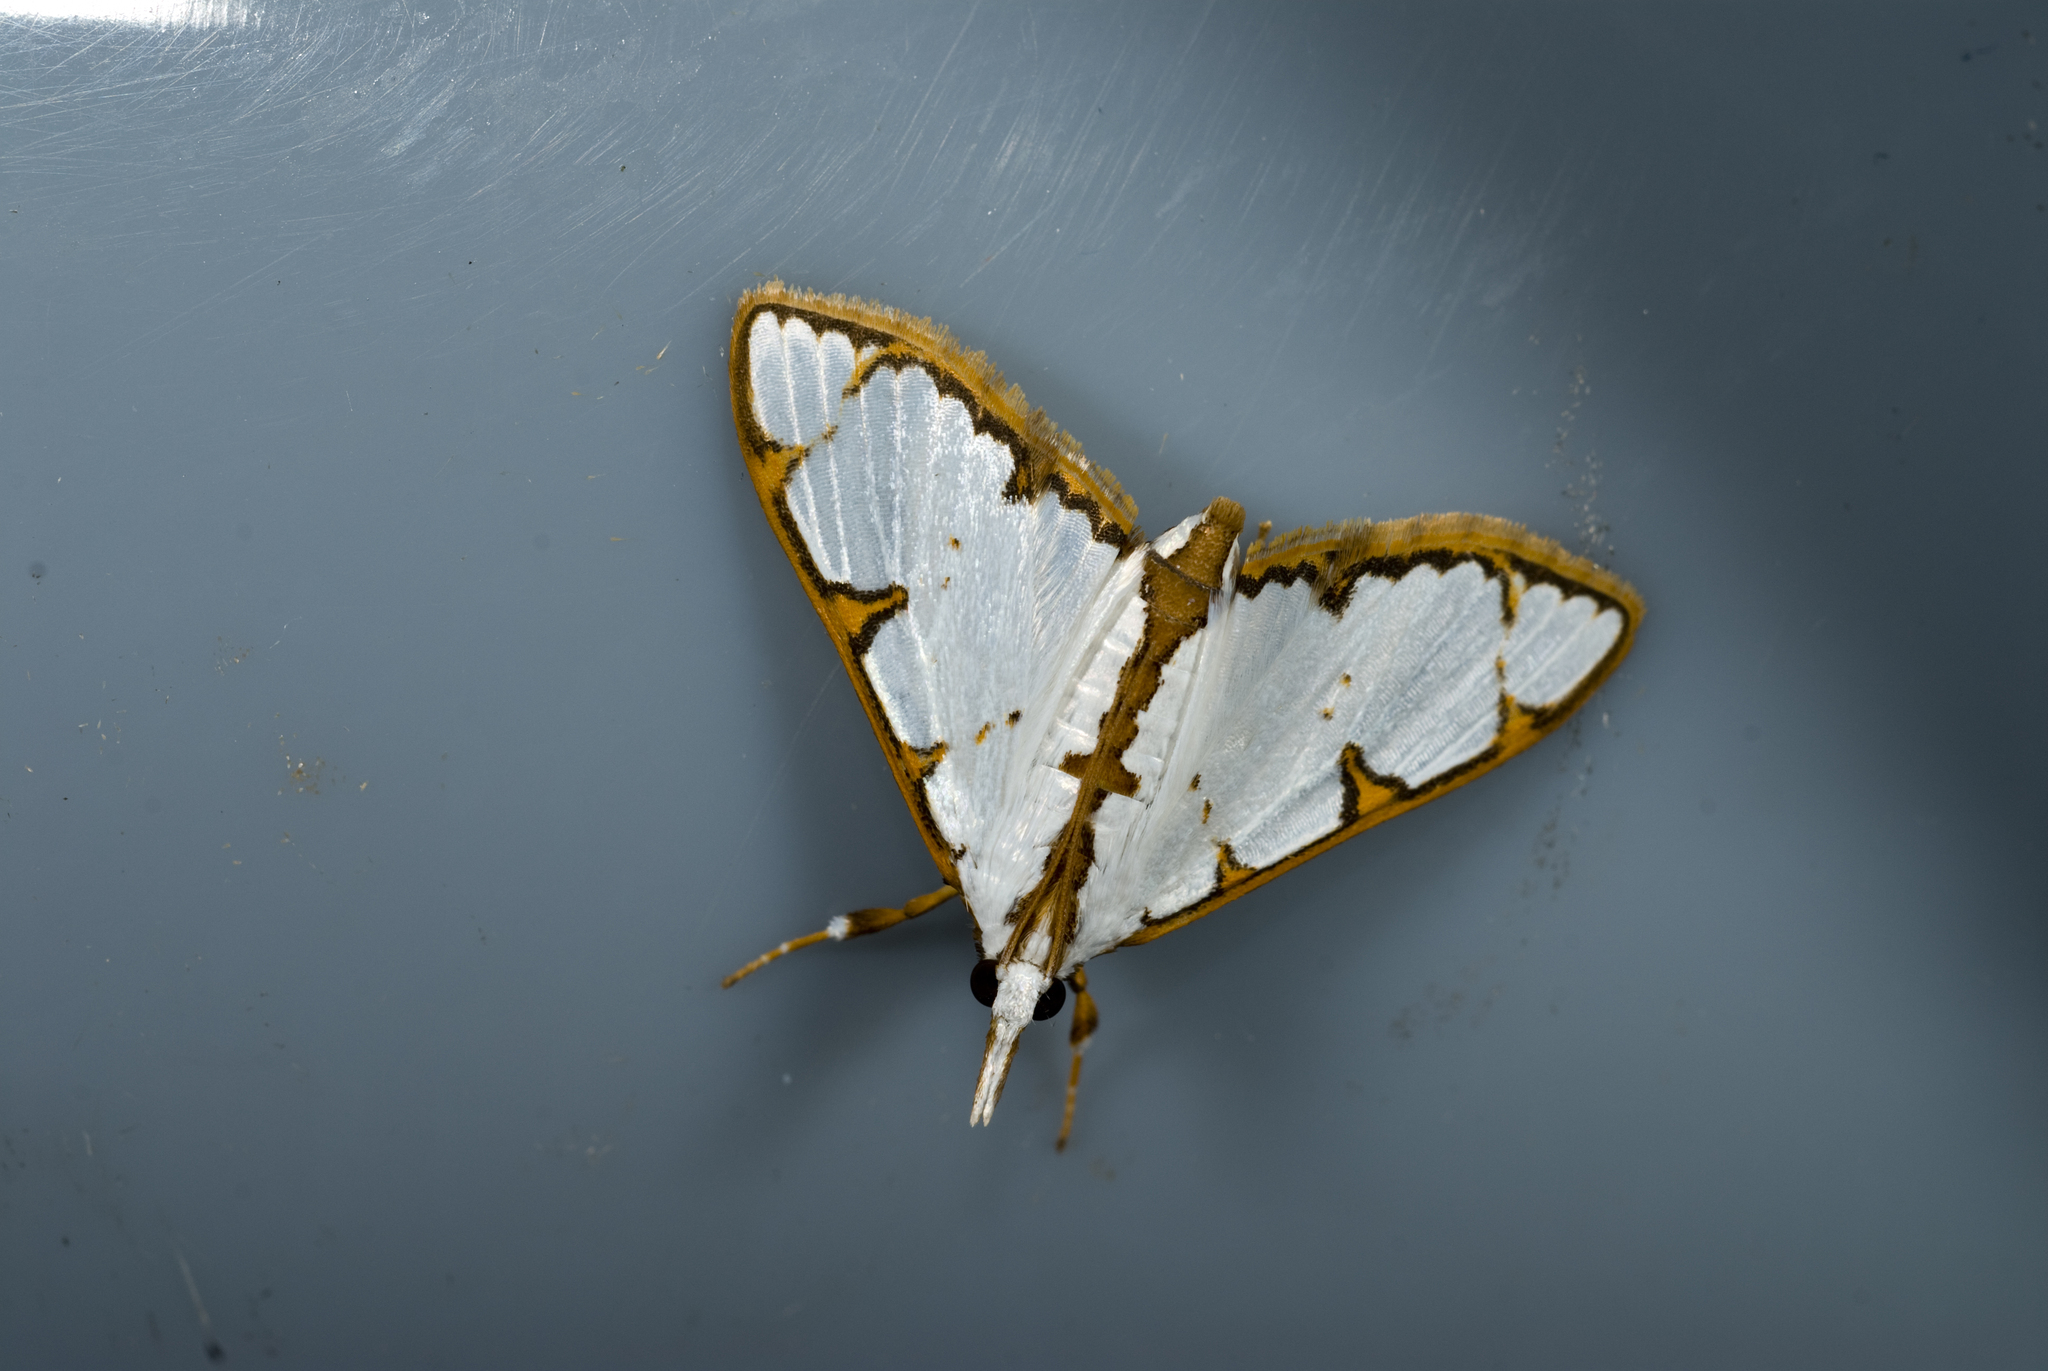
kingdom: Animalia
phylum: Arthropoda
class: Insecta
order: Lepidoptera
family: Crambidae
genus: Cirrhochrista
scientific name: Cirrhochrista spinuella
